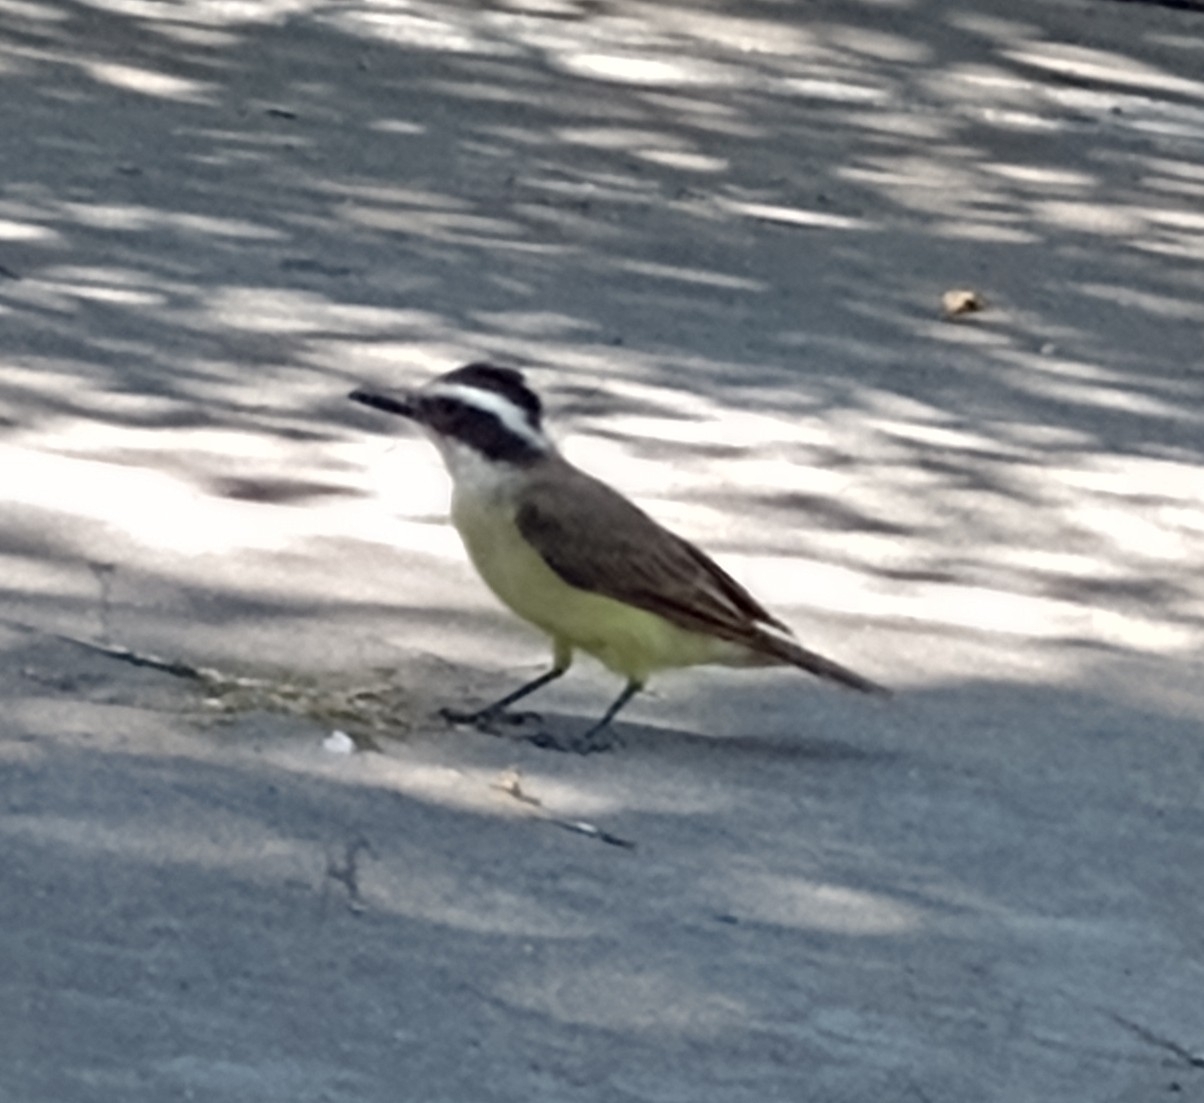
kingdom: Animalia
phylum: Chordata
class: Aves
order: Passeriformes
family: Tyrannidae
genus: Pitangus
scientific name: Pitangus sulphuratus
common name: Great kiskadee
